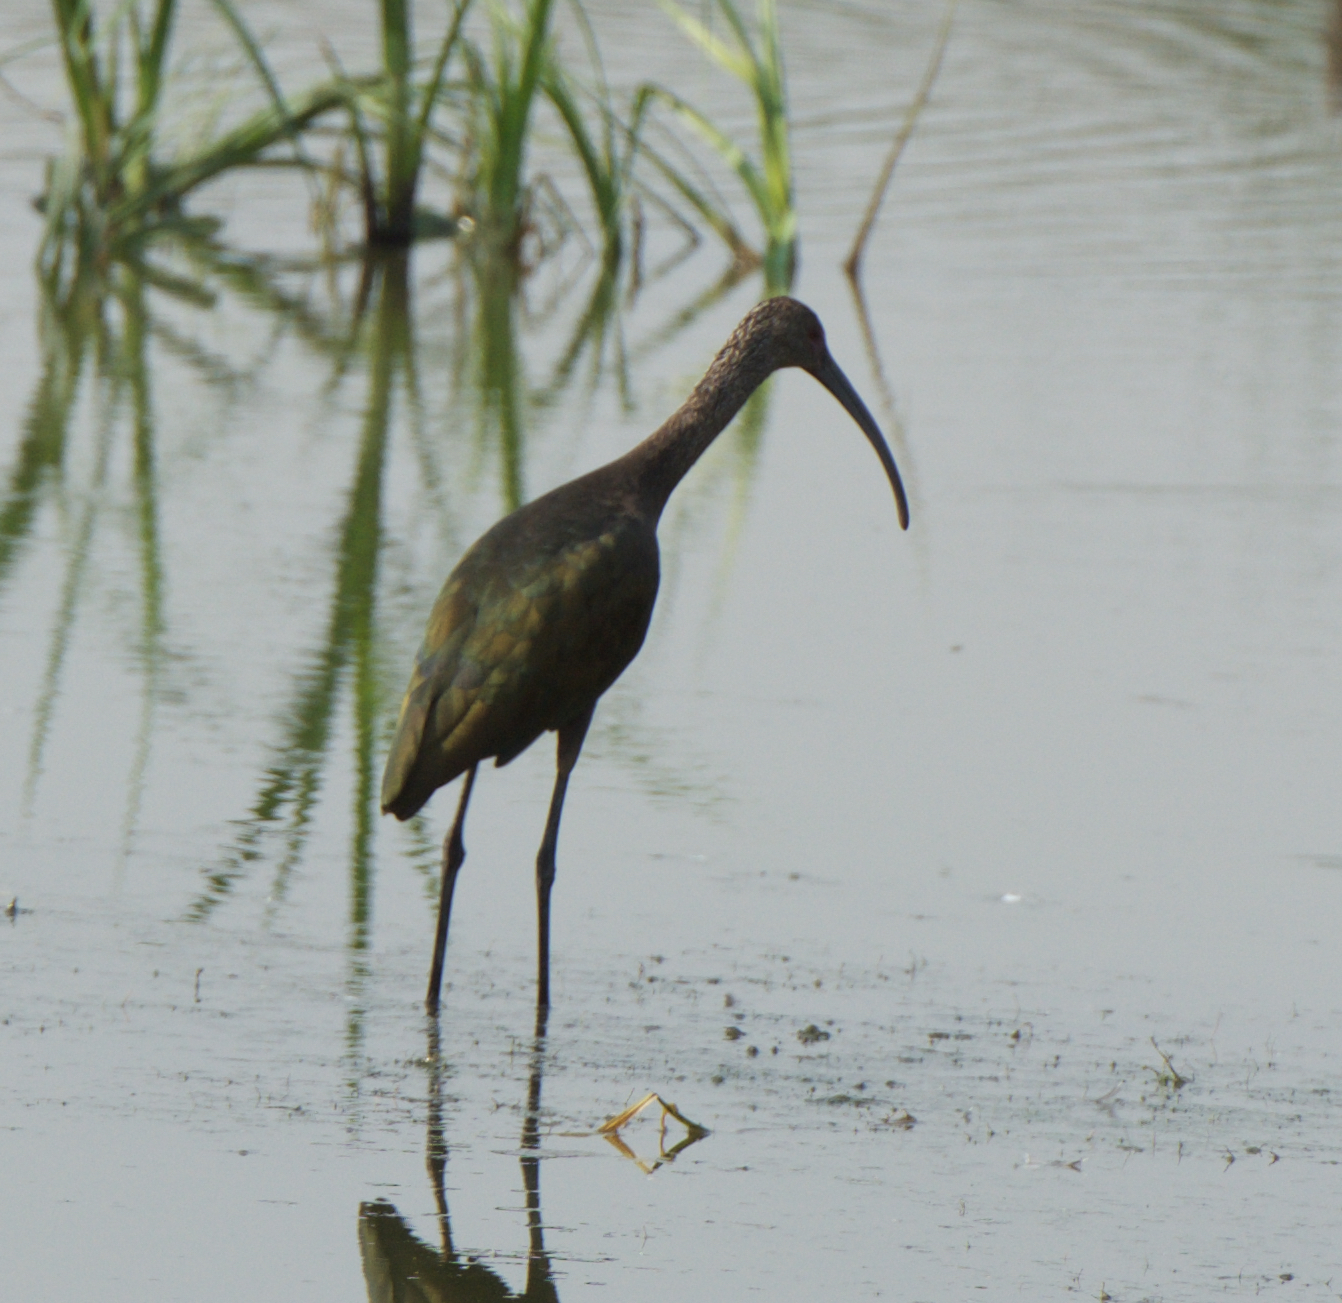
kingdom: Animalia
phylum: Chordata
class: Aves
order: Pelecaniformes
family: Threskiornithidae
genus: Plegadis
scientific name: Plegadis chihi
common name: White-faced ibis
